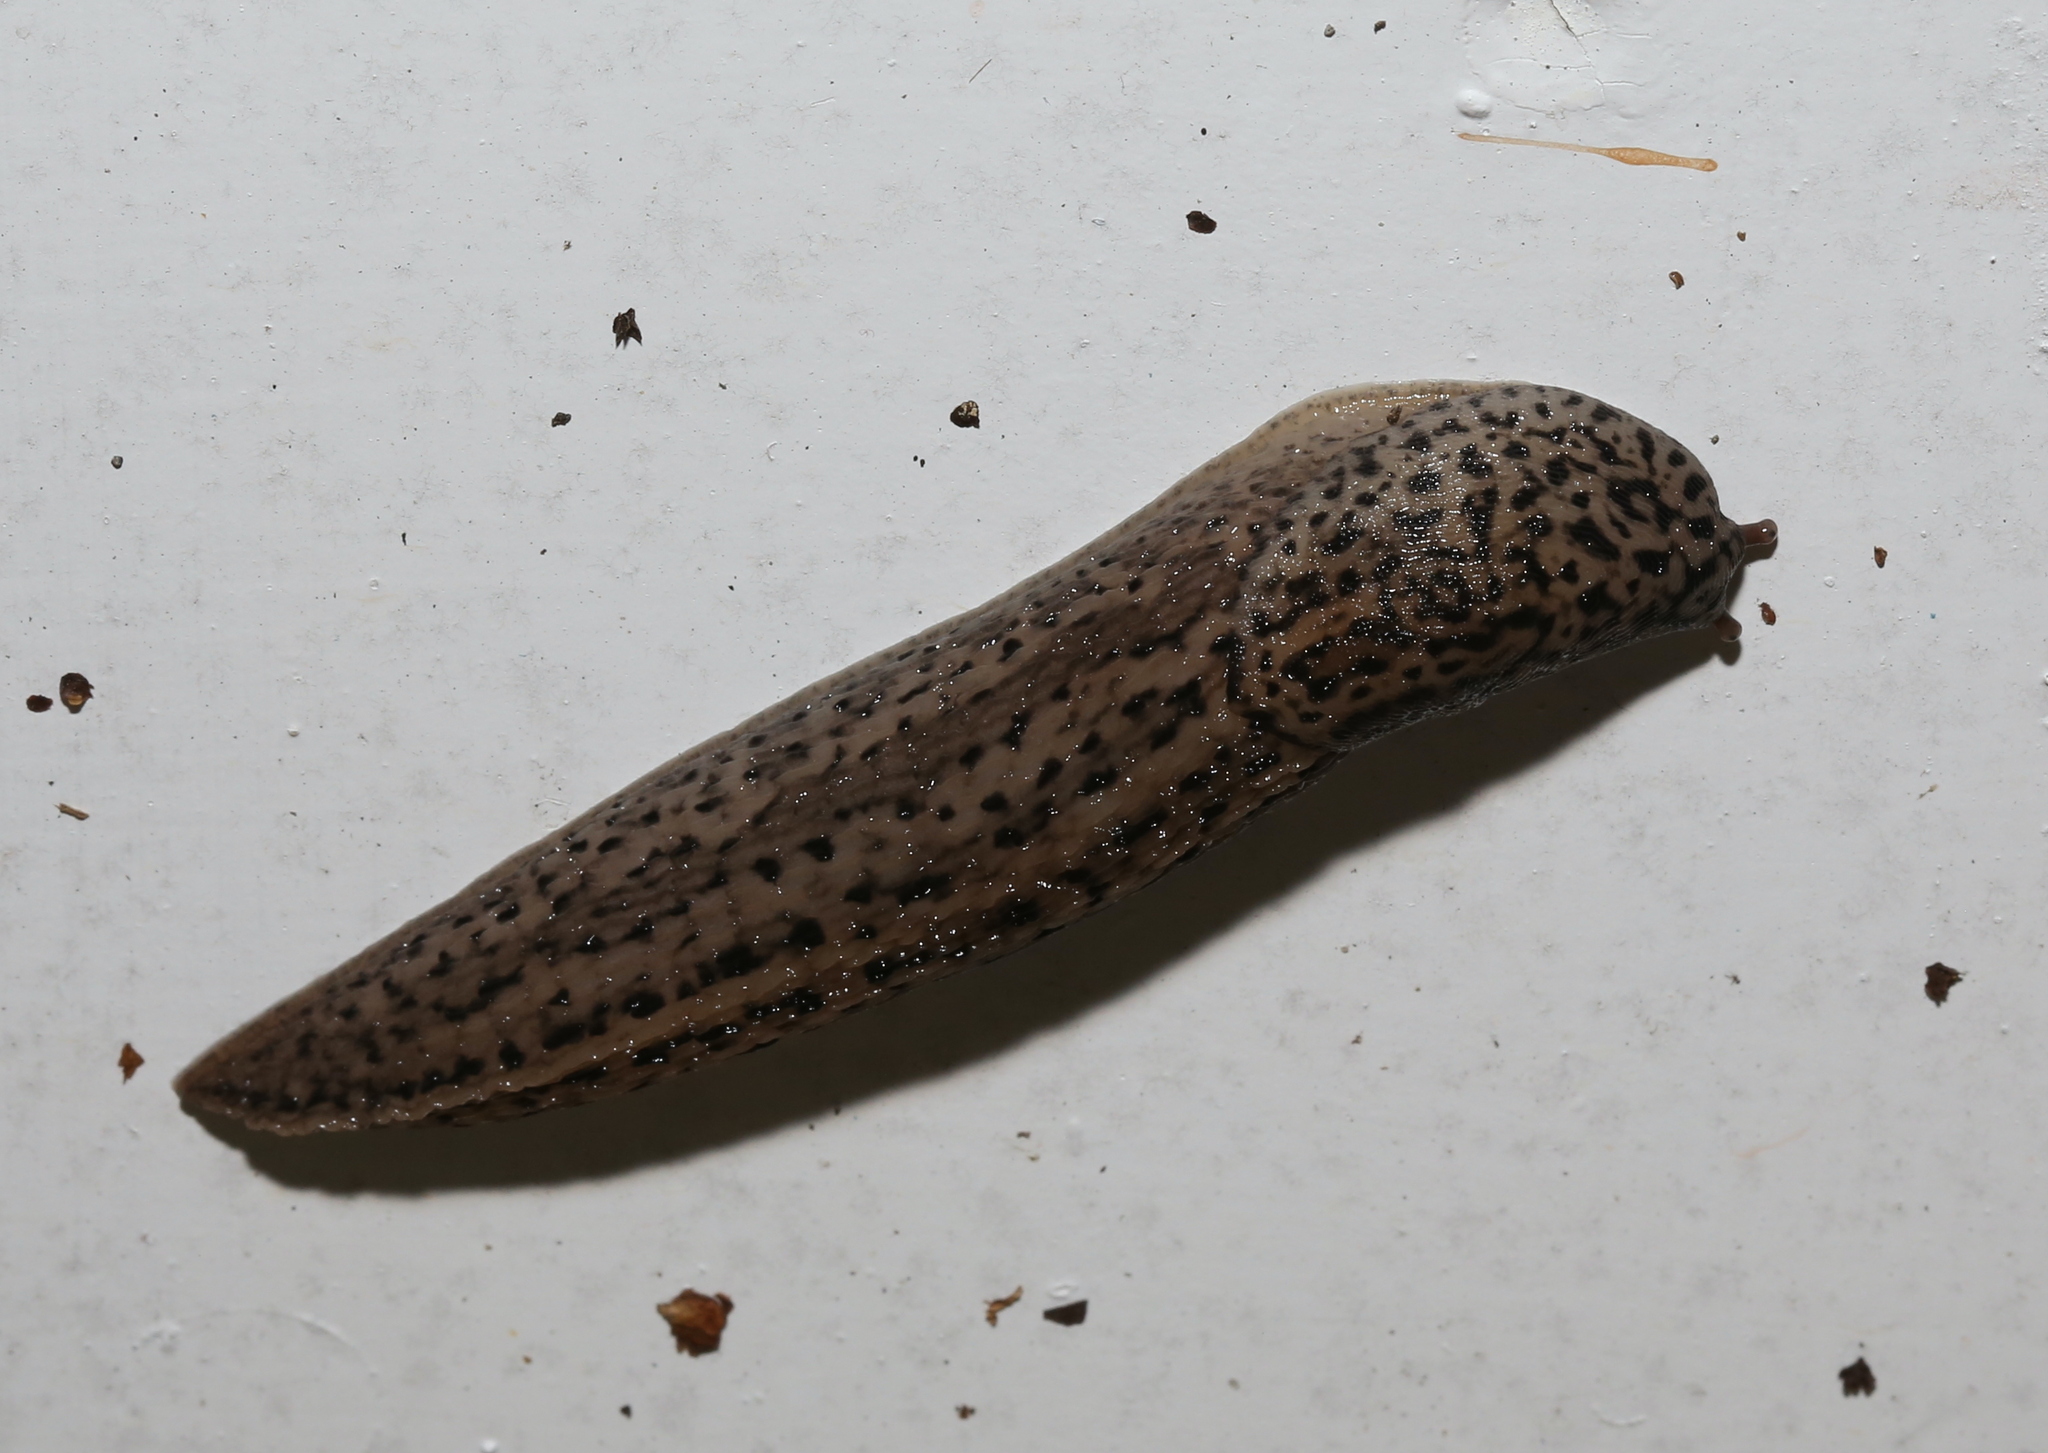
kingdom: Animalia
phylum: Mollusca
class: Gastropoda
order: Stylommatophora
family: Limacidae
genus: Limax
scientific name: Limax maximus
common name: Great grey slug
